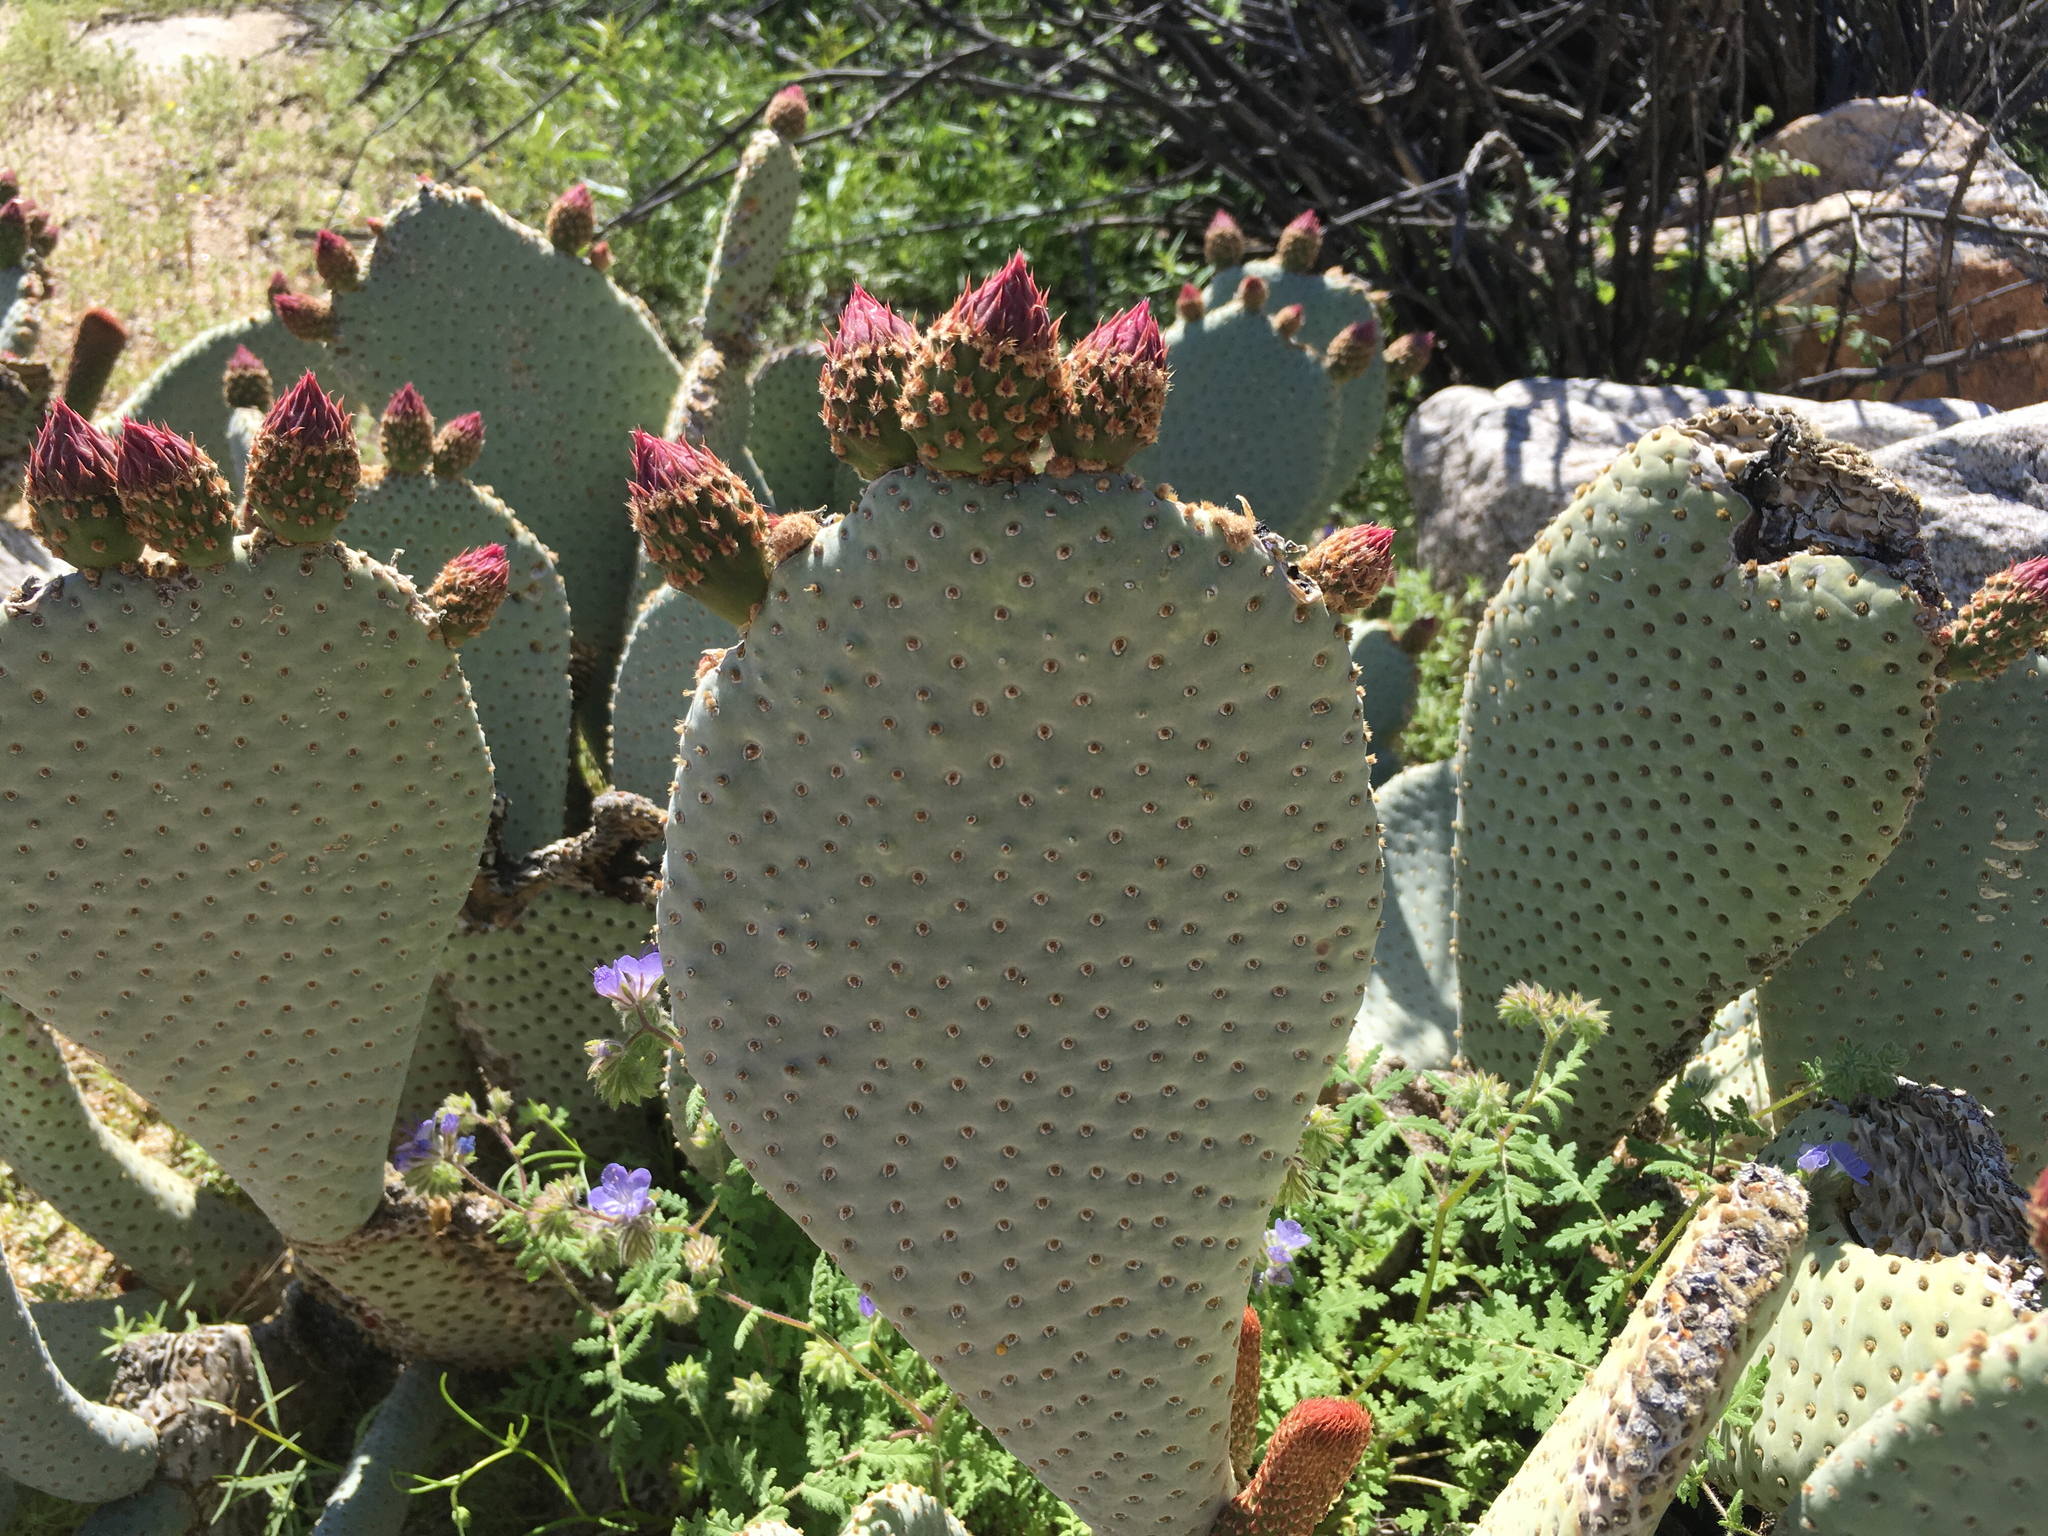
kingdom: Plantae
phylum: Tracheophyta
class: Magnoliopsida
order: Caryophyllales
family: Cactaceae
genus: Opuntia
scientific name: Opuntia basilaris
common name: Beavertail prickly-pear
